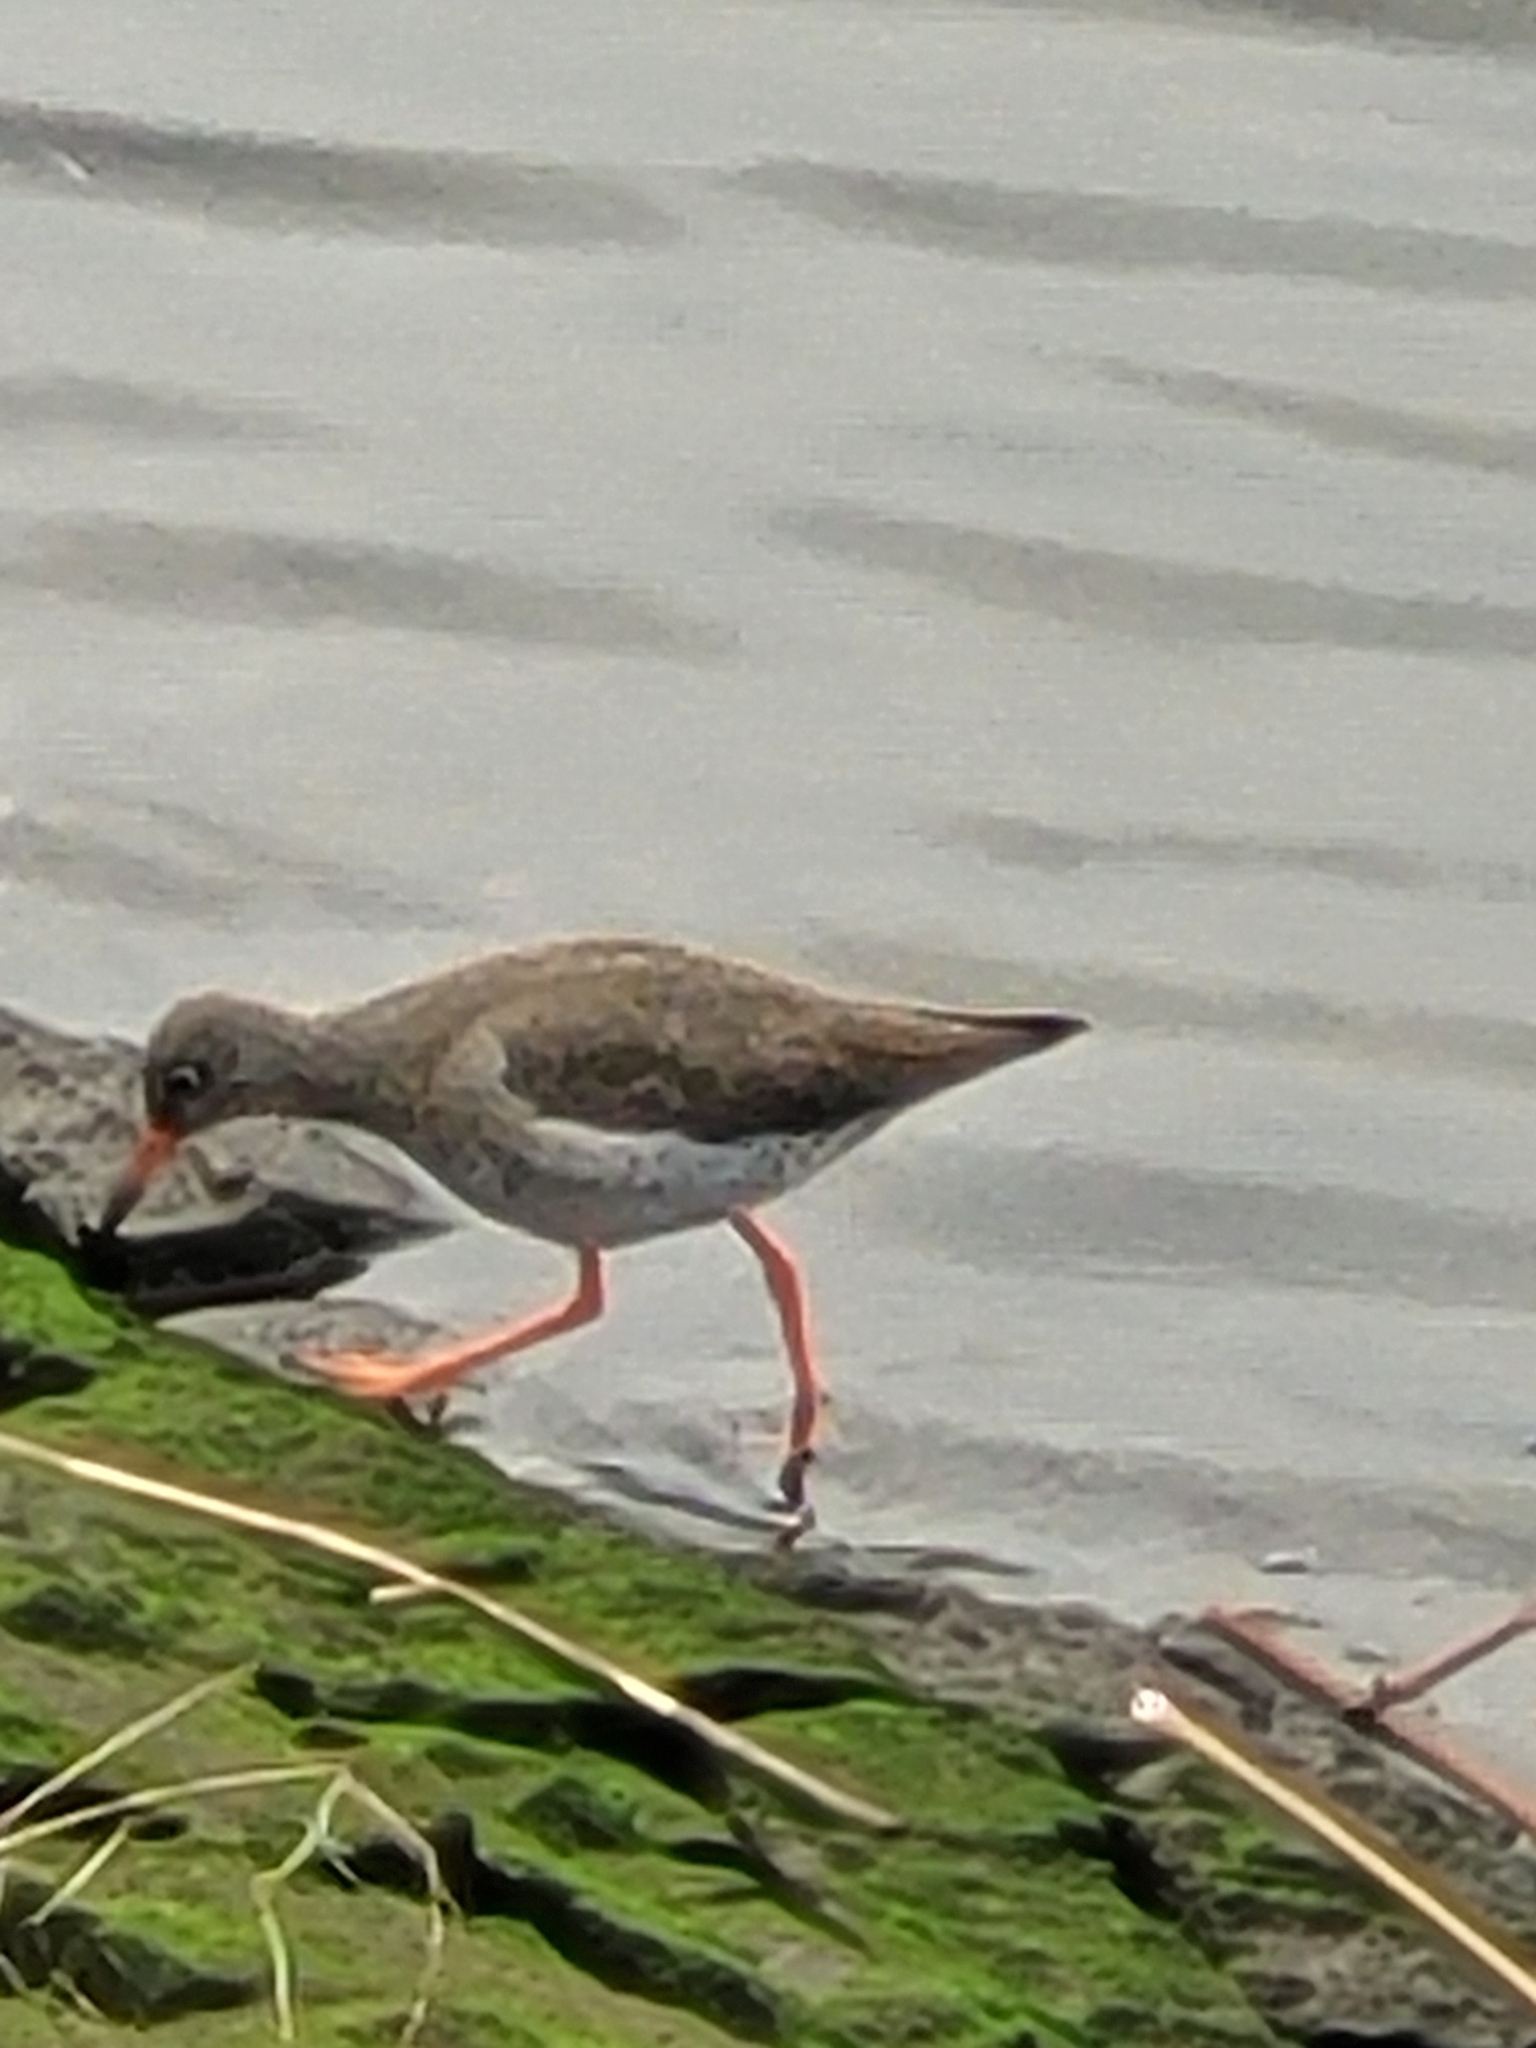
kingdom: Animalia
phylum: Chordata
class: Aves
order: Charadriiformes
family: Scolopacidae
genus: Tringa
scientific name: Tringa totanus
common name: Common redshank
